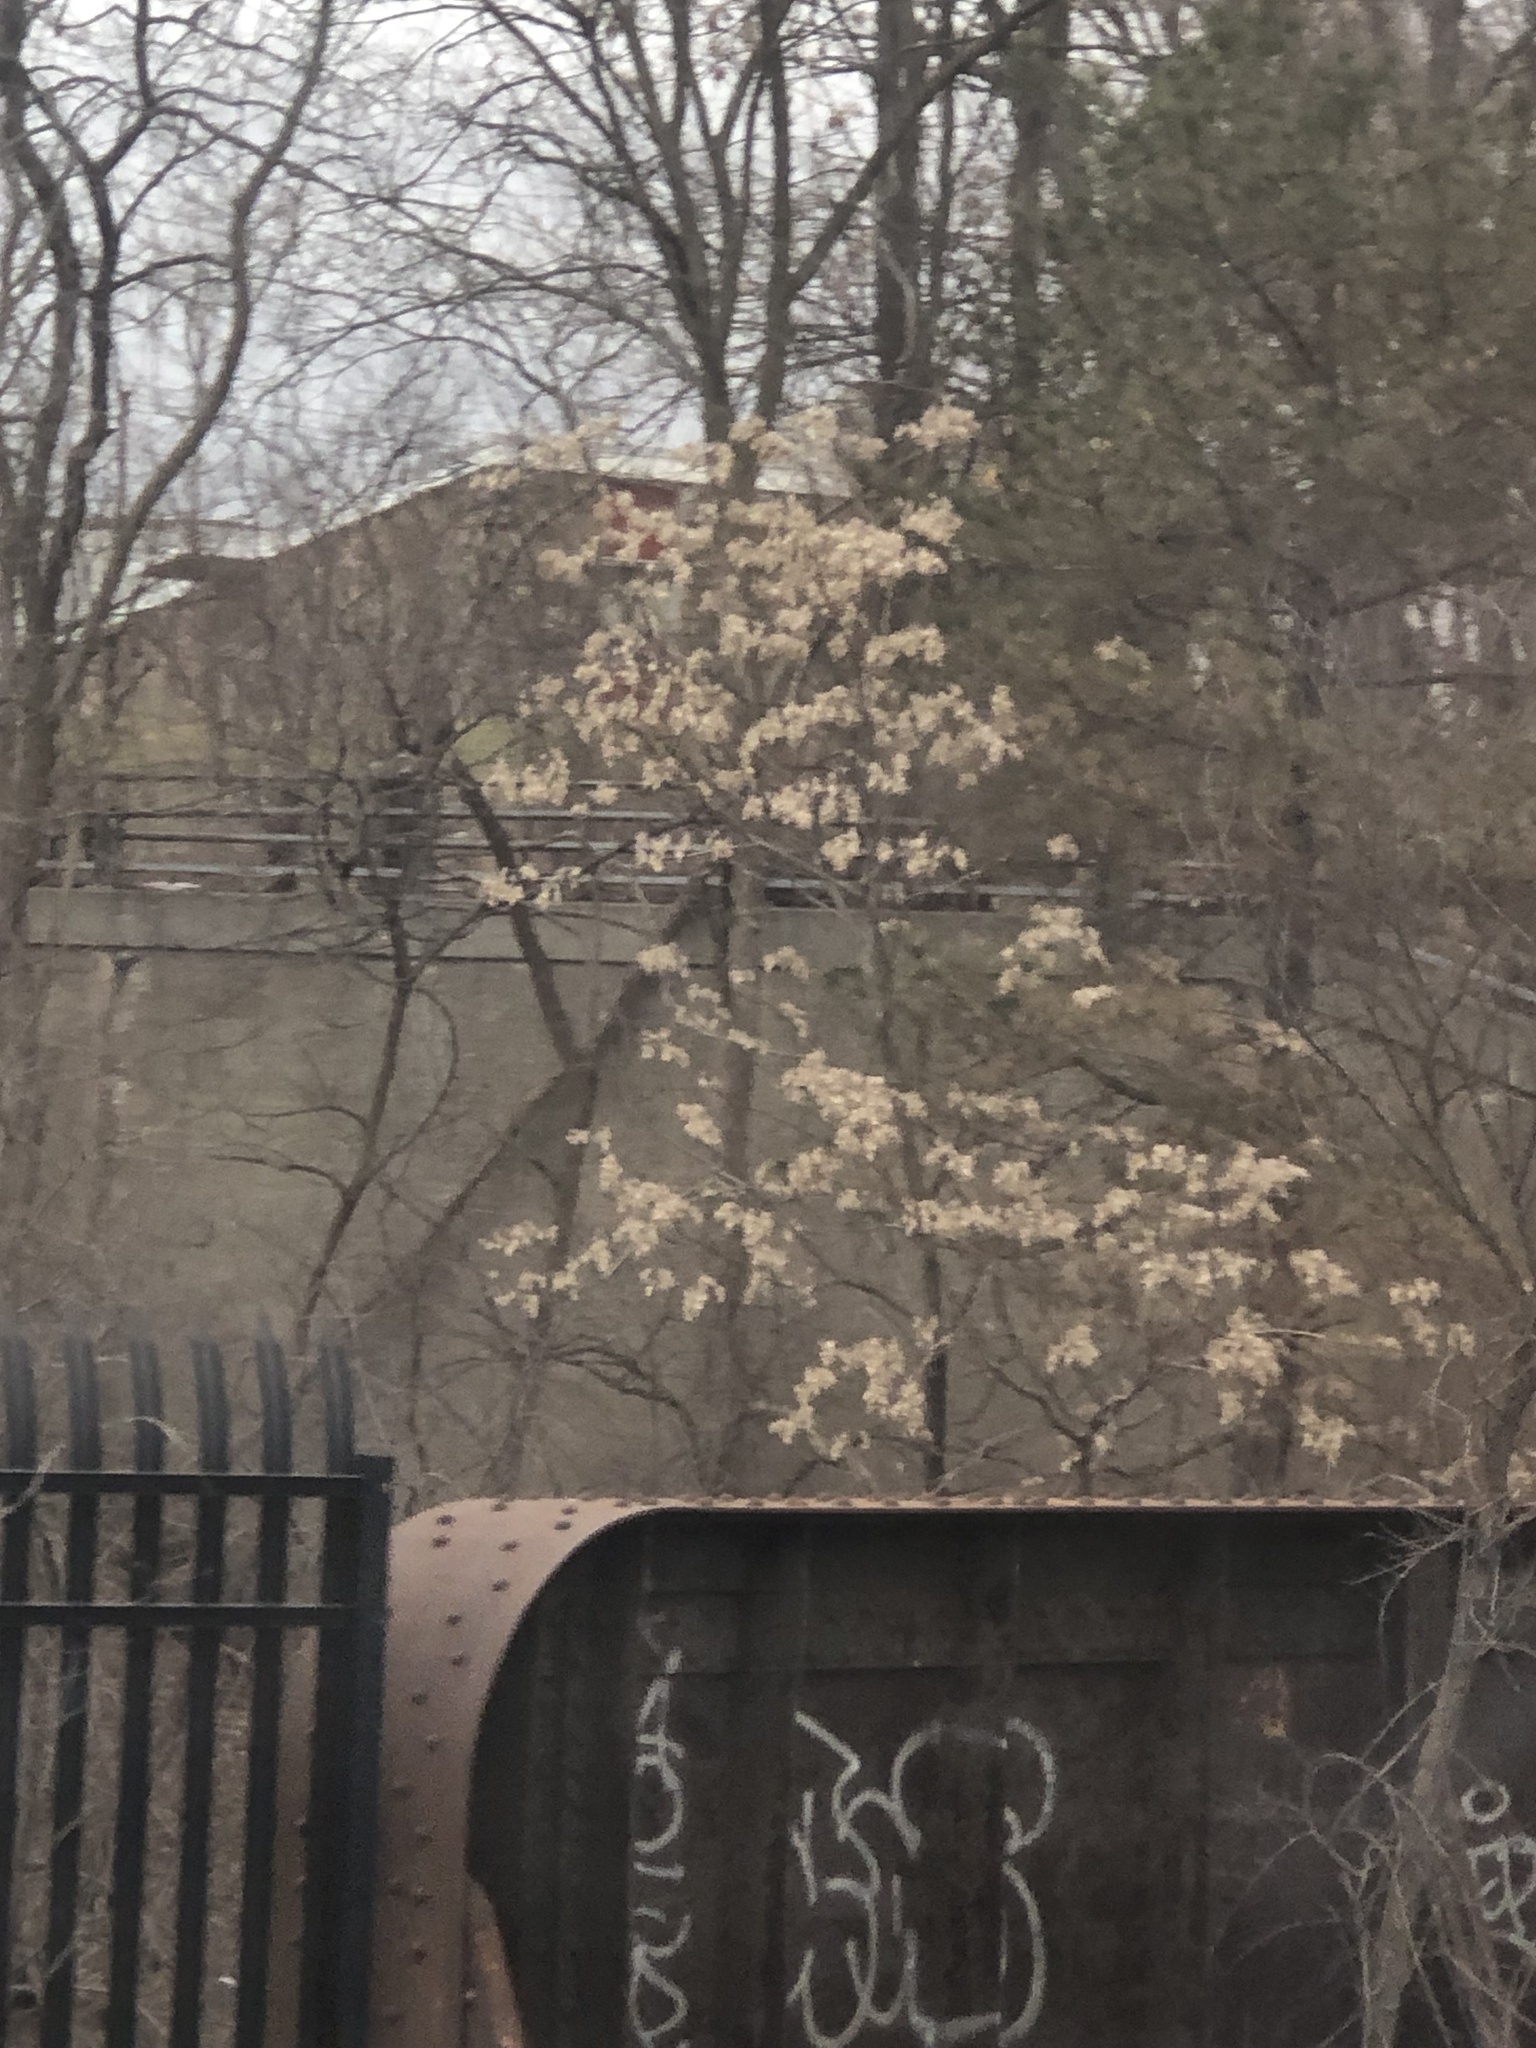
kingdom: Plantae
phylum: Tracheophyta
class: Magnoliopsida
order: Sapindales
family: Simaroubaceae
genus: Ailanthus
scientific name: Ailanthus altissima
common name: Tree-of-heaven
